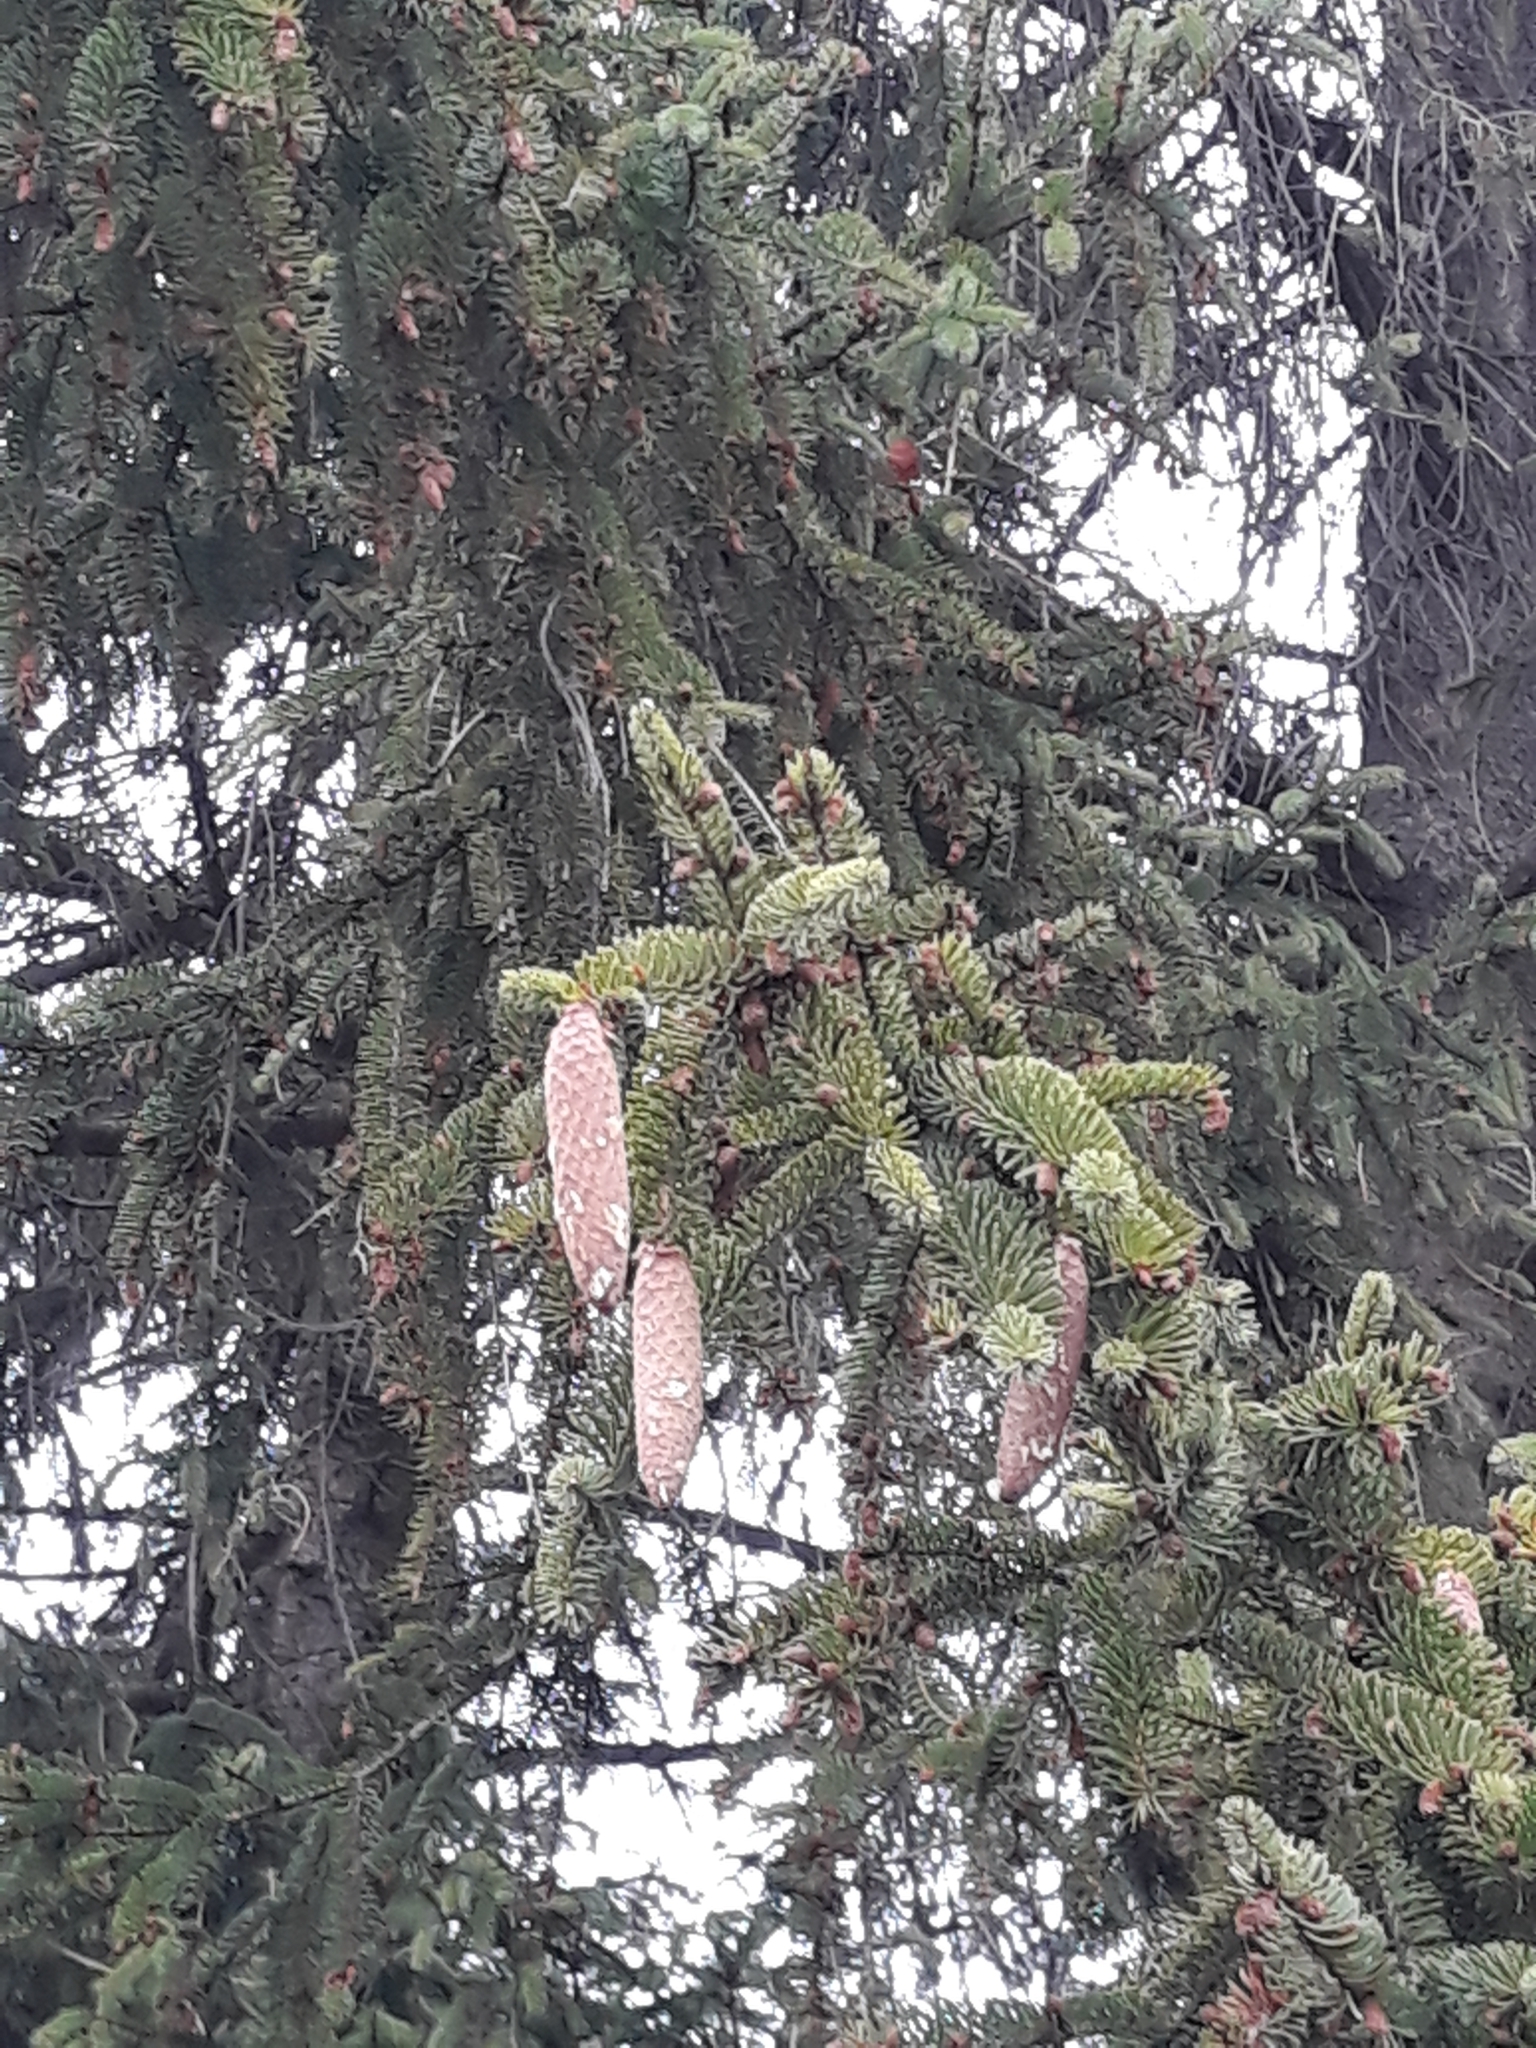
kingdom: Plantae
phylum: Tracheophyta
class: Pinopsida
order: Pinales
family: Pinaceae
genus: Picea
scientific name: Picea abies
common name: Norway spruce
